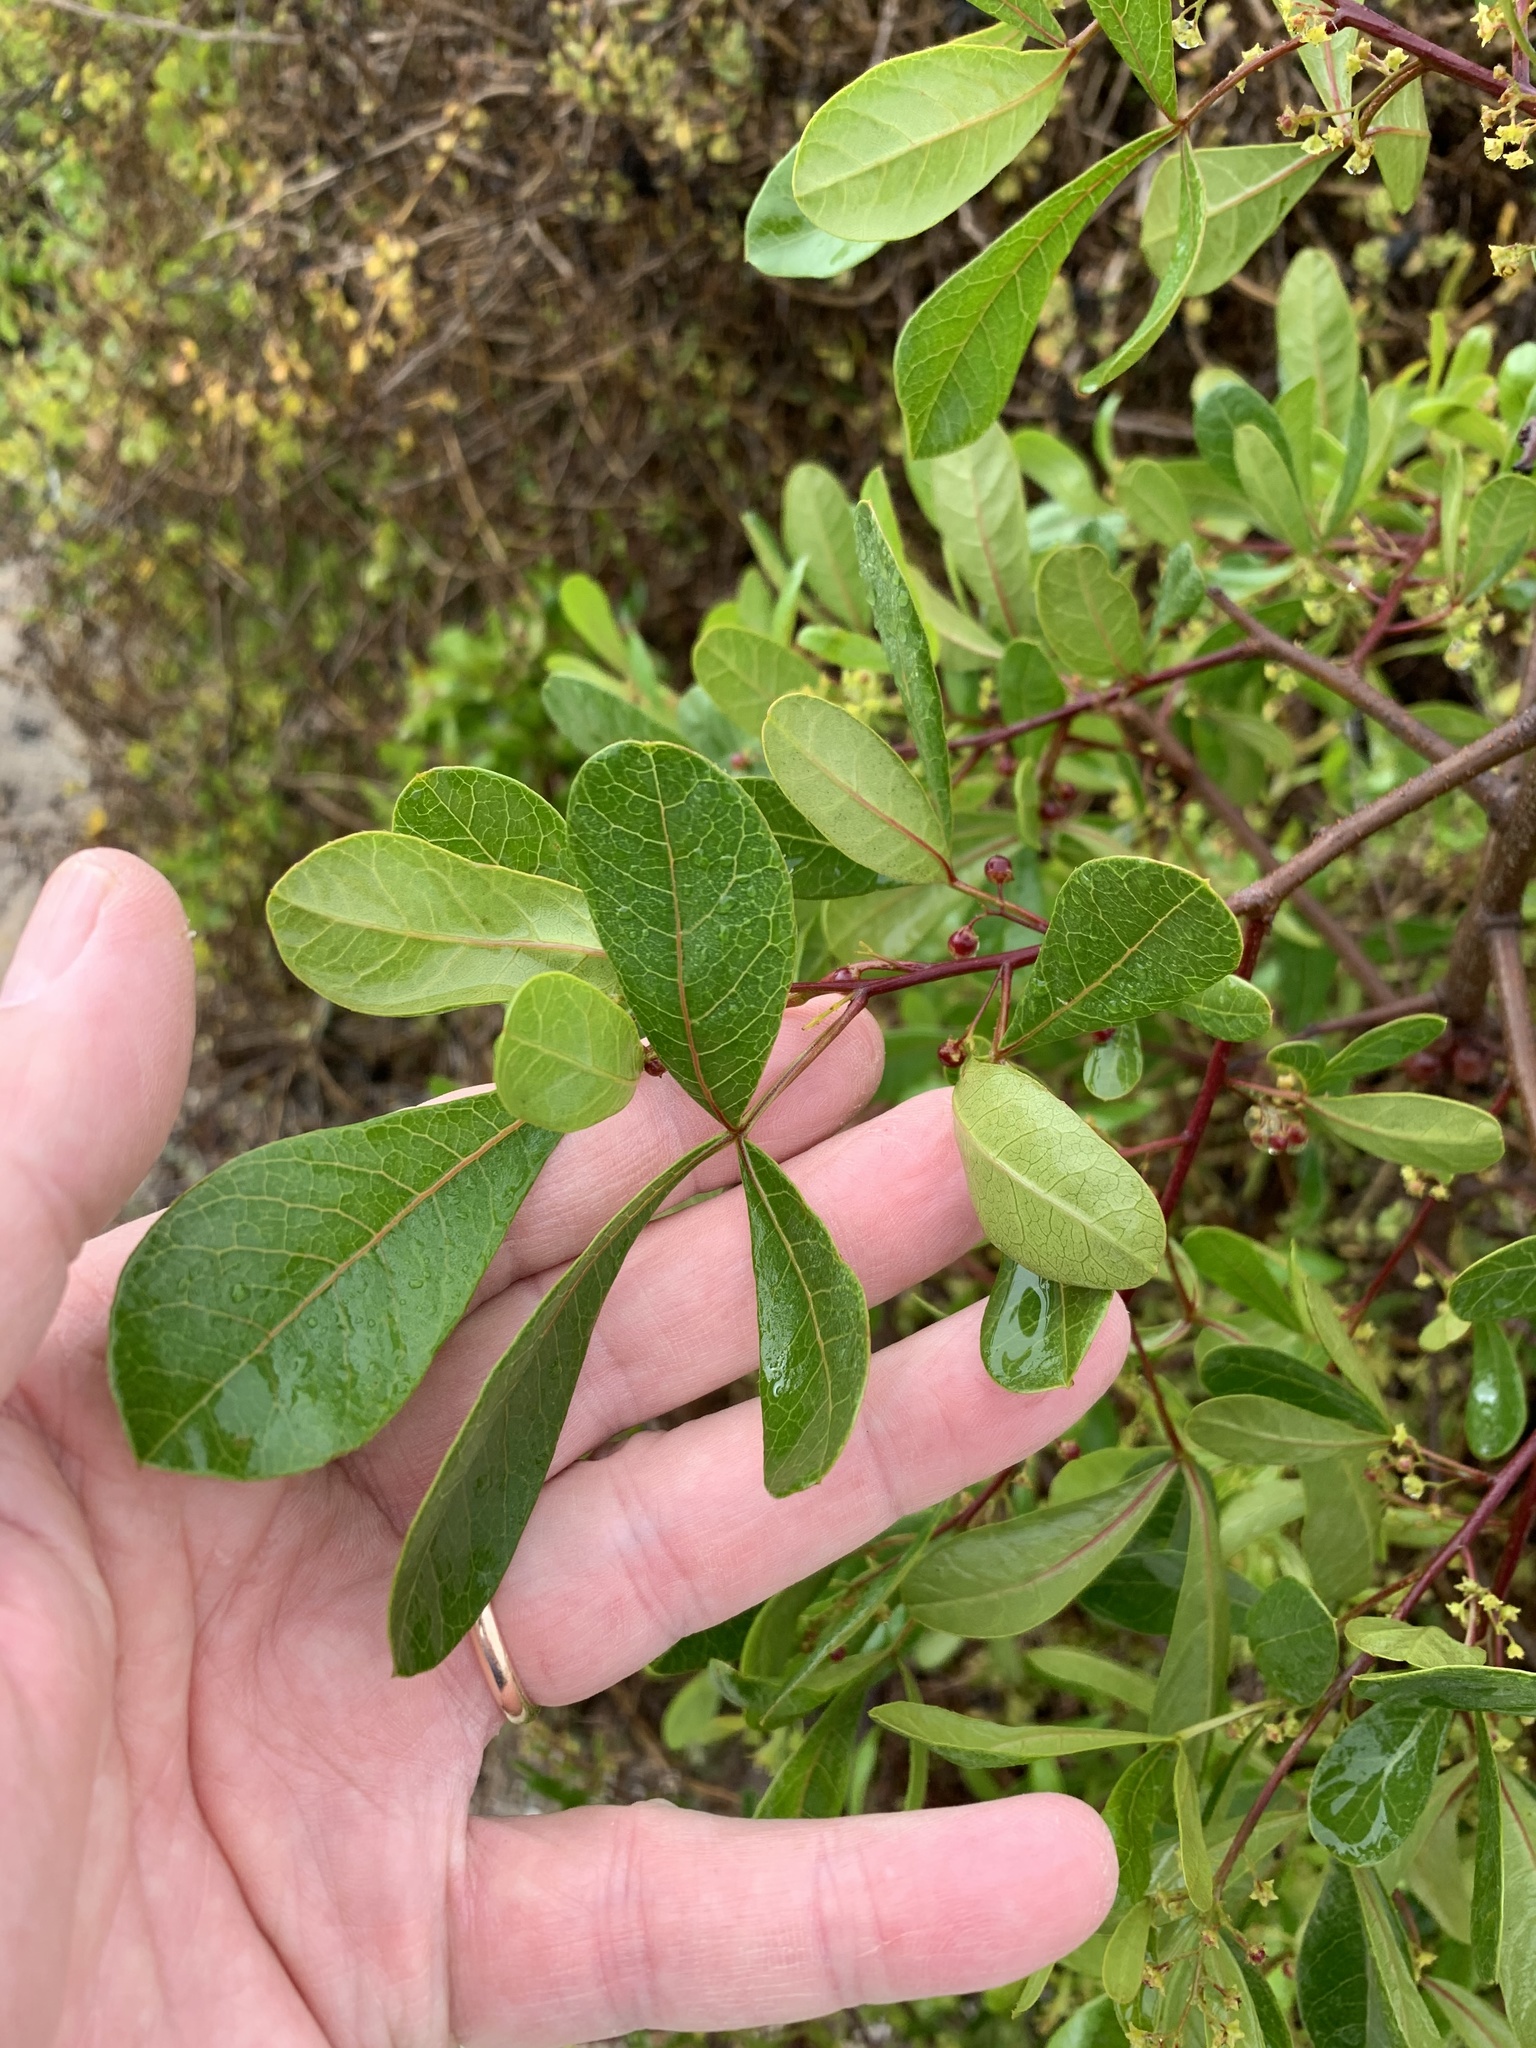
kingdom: Plantae
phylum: Tracheophyta
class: Magnoliopsida
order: Sapindales
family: Anacardiaceae
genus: Searsia
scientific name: Searsia laevigata
